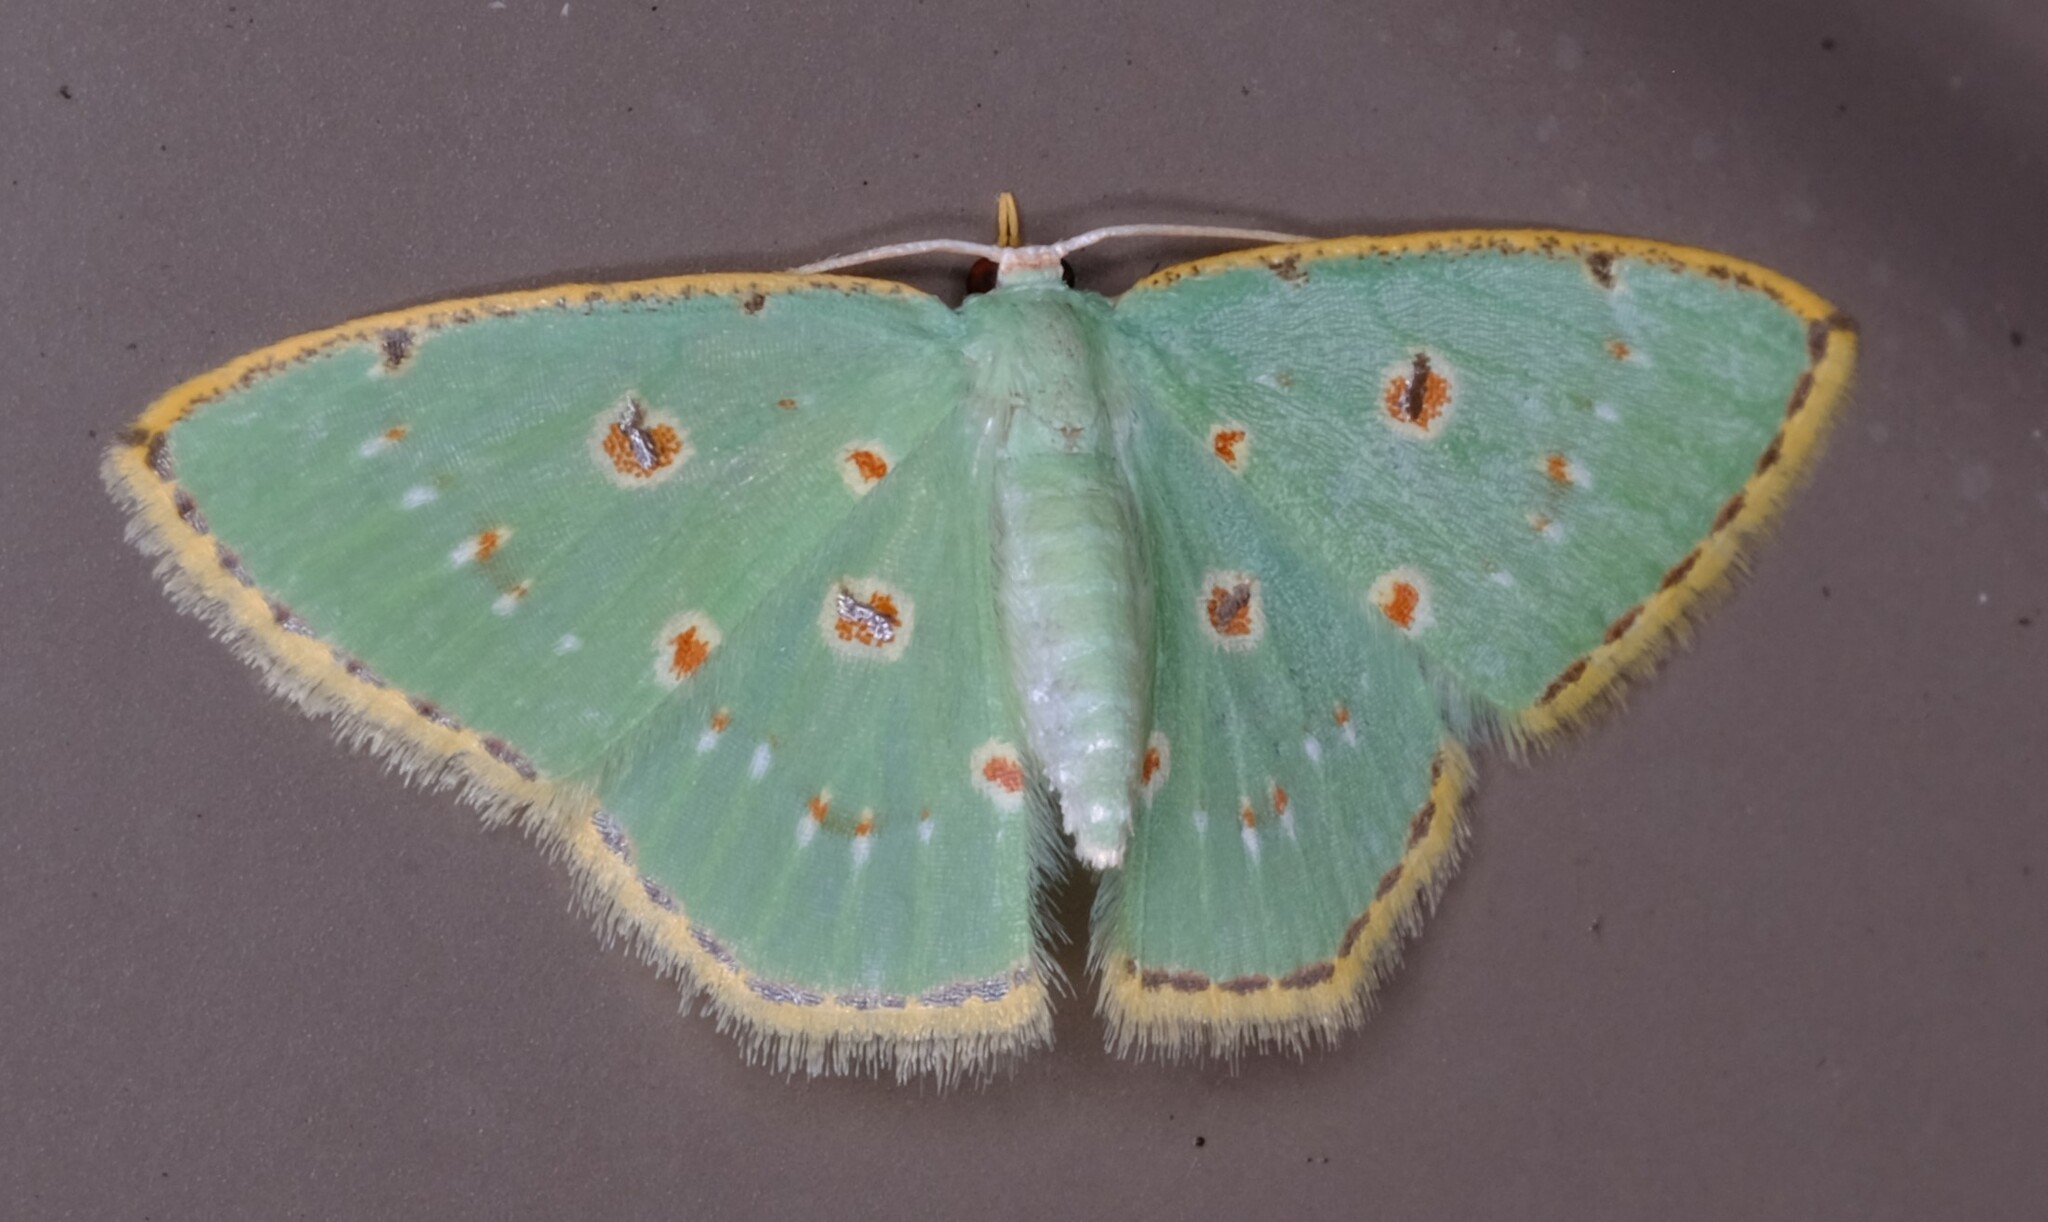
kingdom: Animalia
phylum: Arthropoda
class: Insecta
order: Lepidoptera
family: Geometridae
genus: Comostola
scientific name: Comostola laesaria
